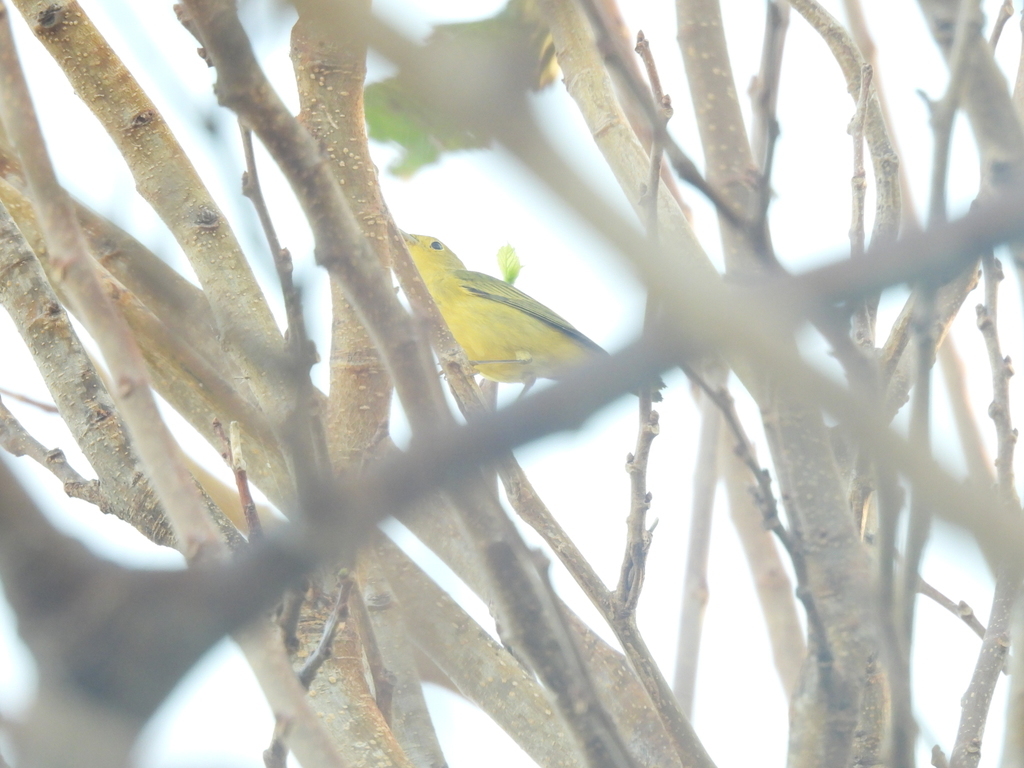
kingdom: Animalia
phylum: Chordata
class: Aves
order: Passeriformes
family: Parulidae
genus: Setophaga
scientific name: Setophaga petechia
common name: Yellow warbler
